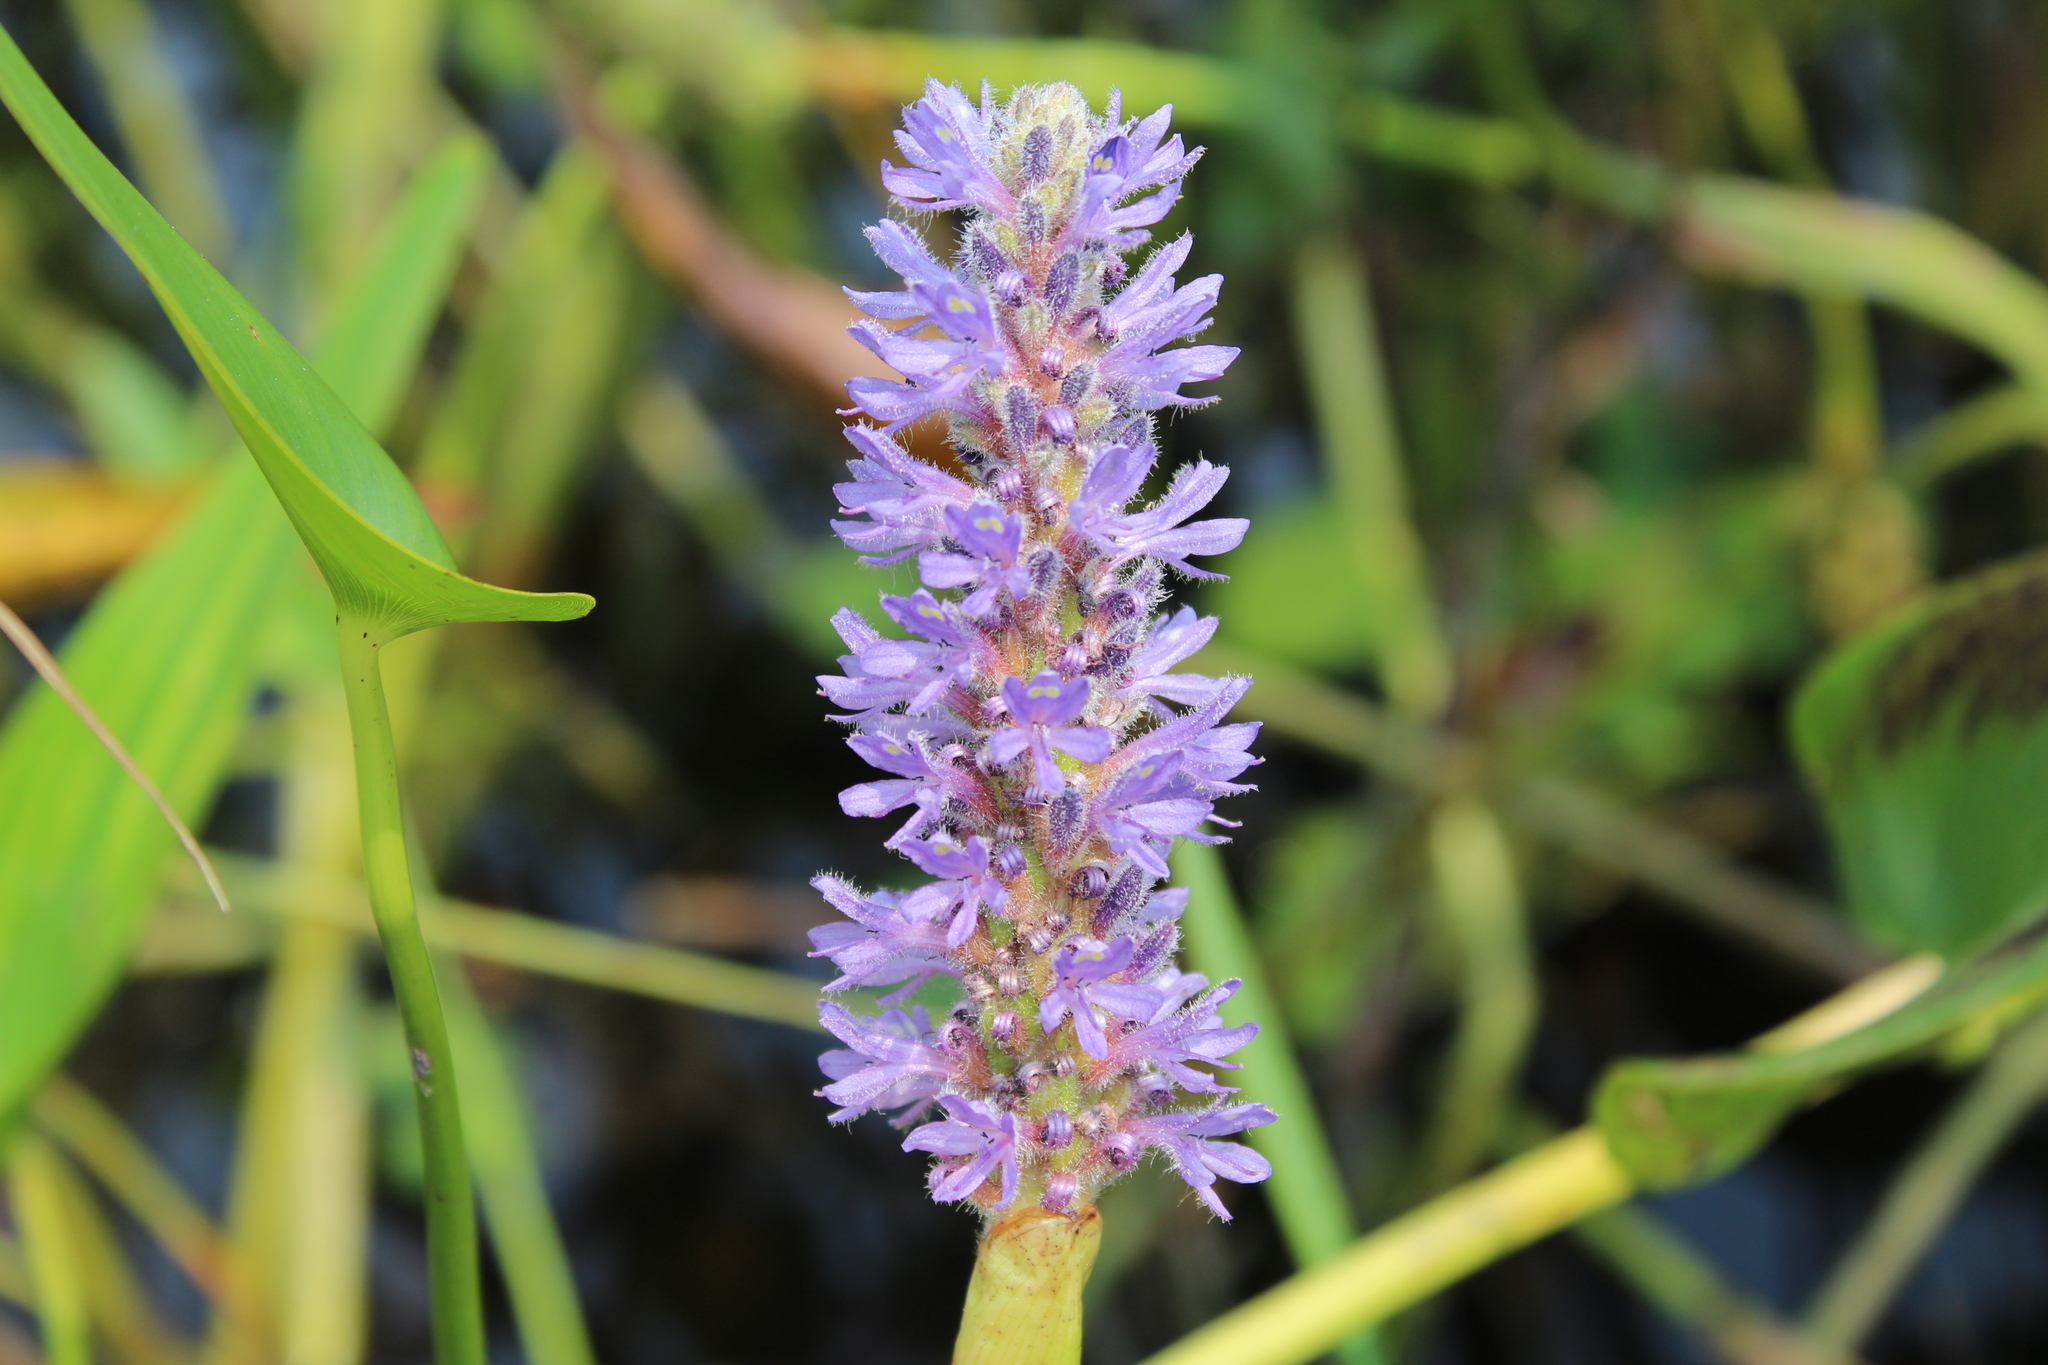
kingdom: Plantae
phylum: Tracheophyta
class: Liliopsida
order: Commelinales
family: Pontederiaceae
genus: Pontederia
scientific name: Pontederia cordata
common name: Pickerelweed
